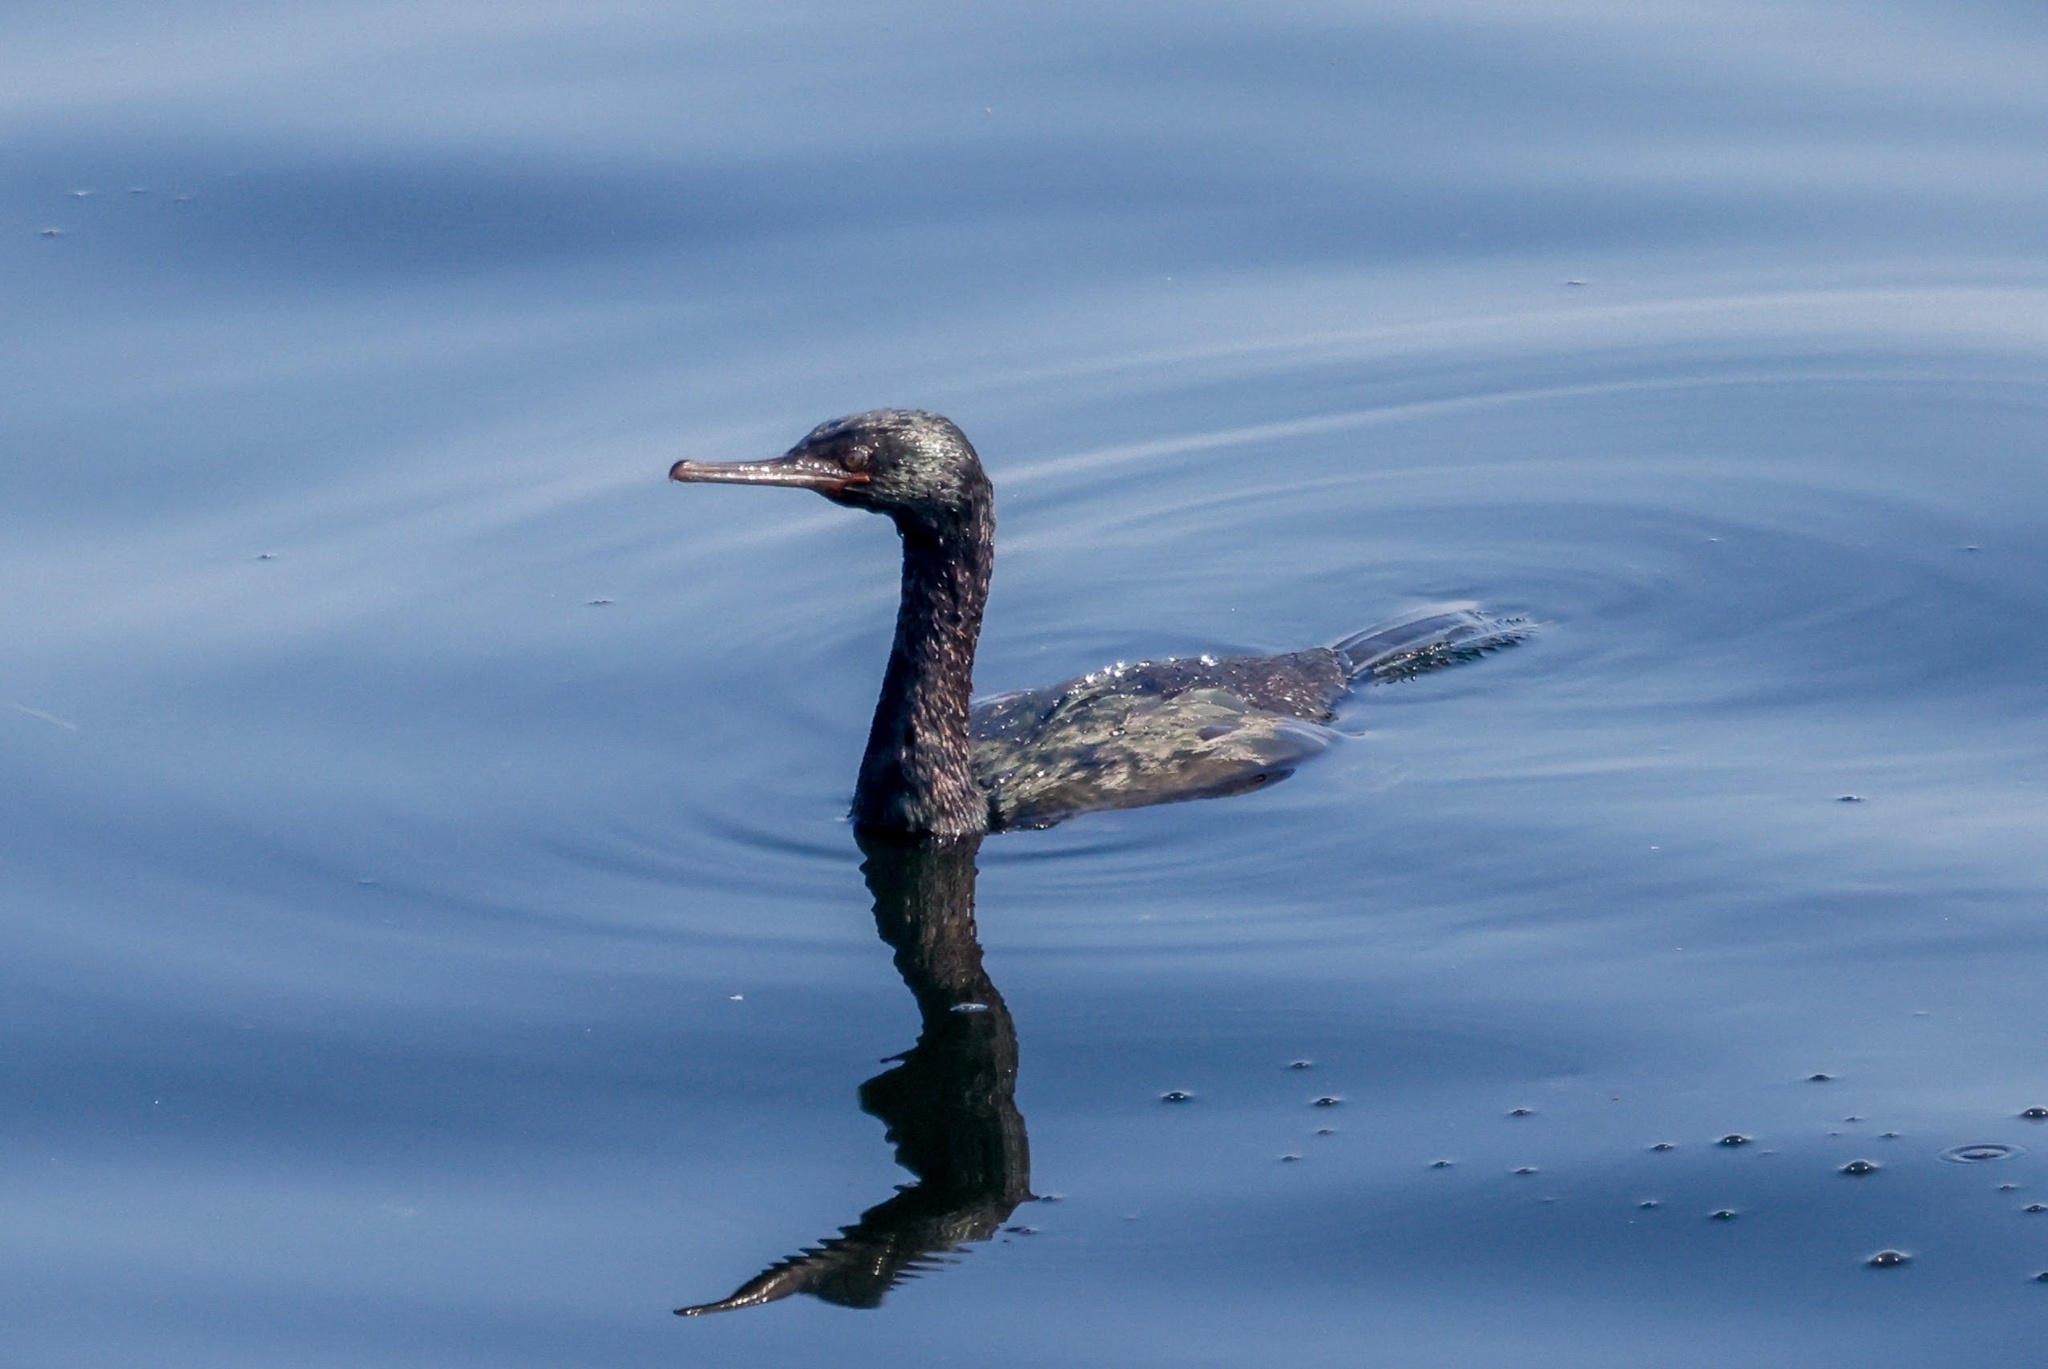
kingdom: Animalia
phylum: Chordata
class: Aves
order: Suliformes
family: Phalacrocoracidae
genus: Phalacrocorax
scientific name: Phalacrocorax pelagicus
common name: Pelagic cormorant
